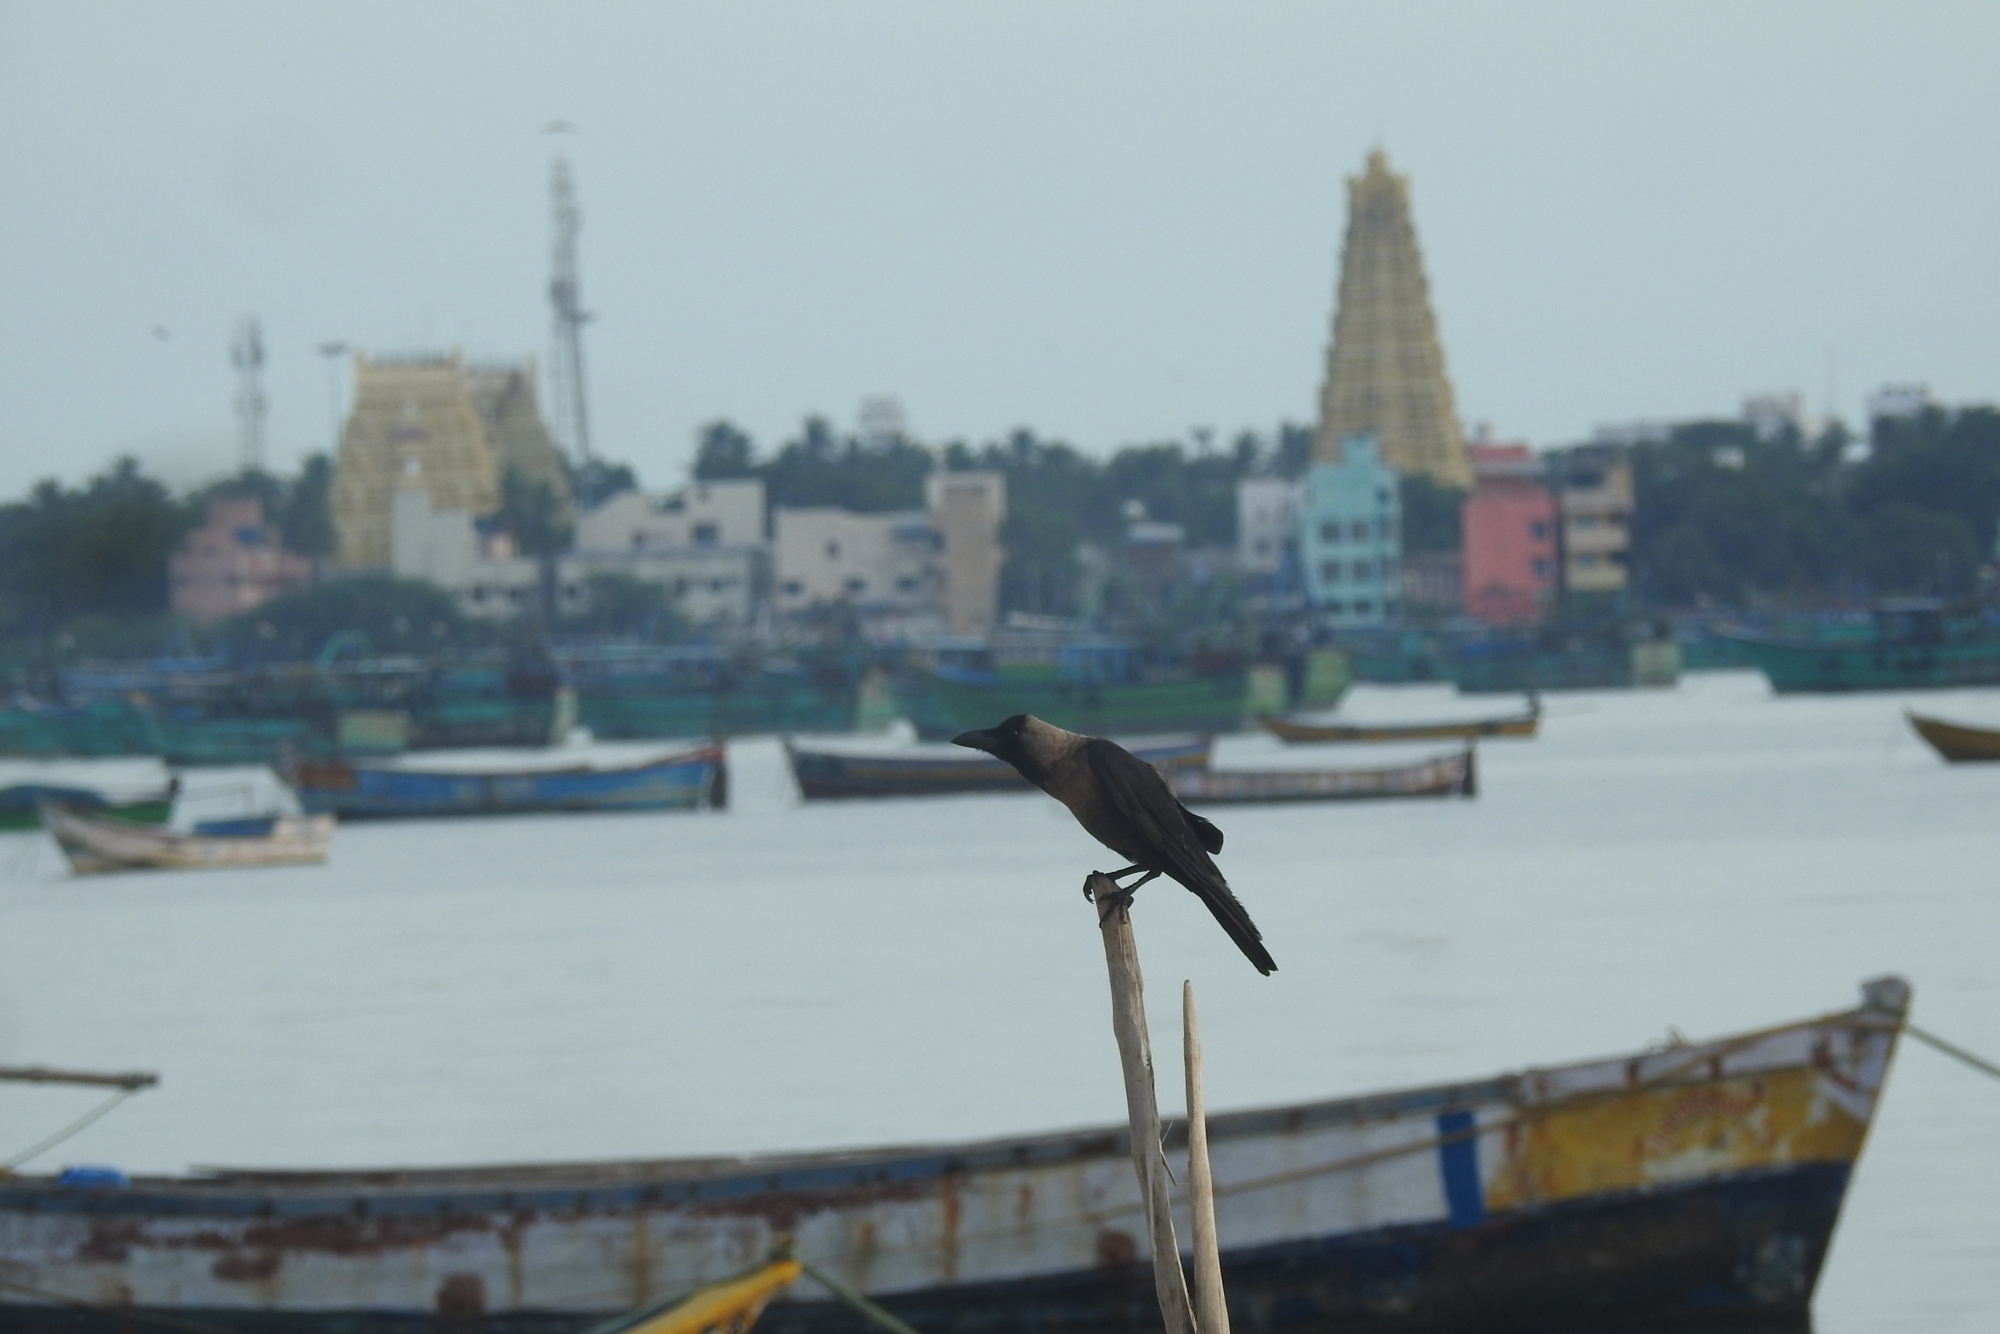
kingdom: Animalia
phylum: Chordata
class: Aves
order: Passeriformes
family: Corvidae
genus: Corvus
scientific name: Corvus splendens
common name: House crow
